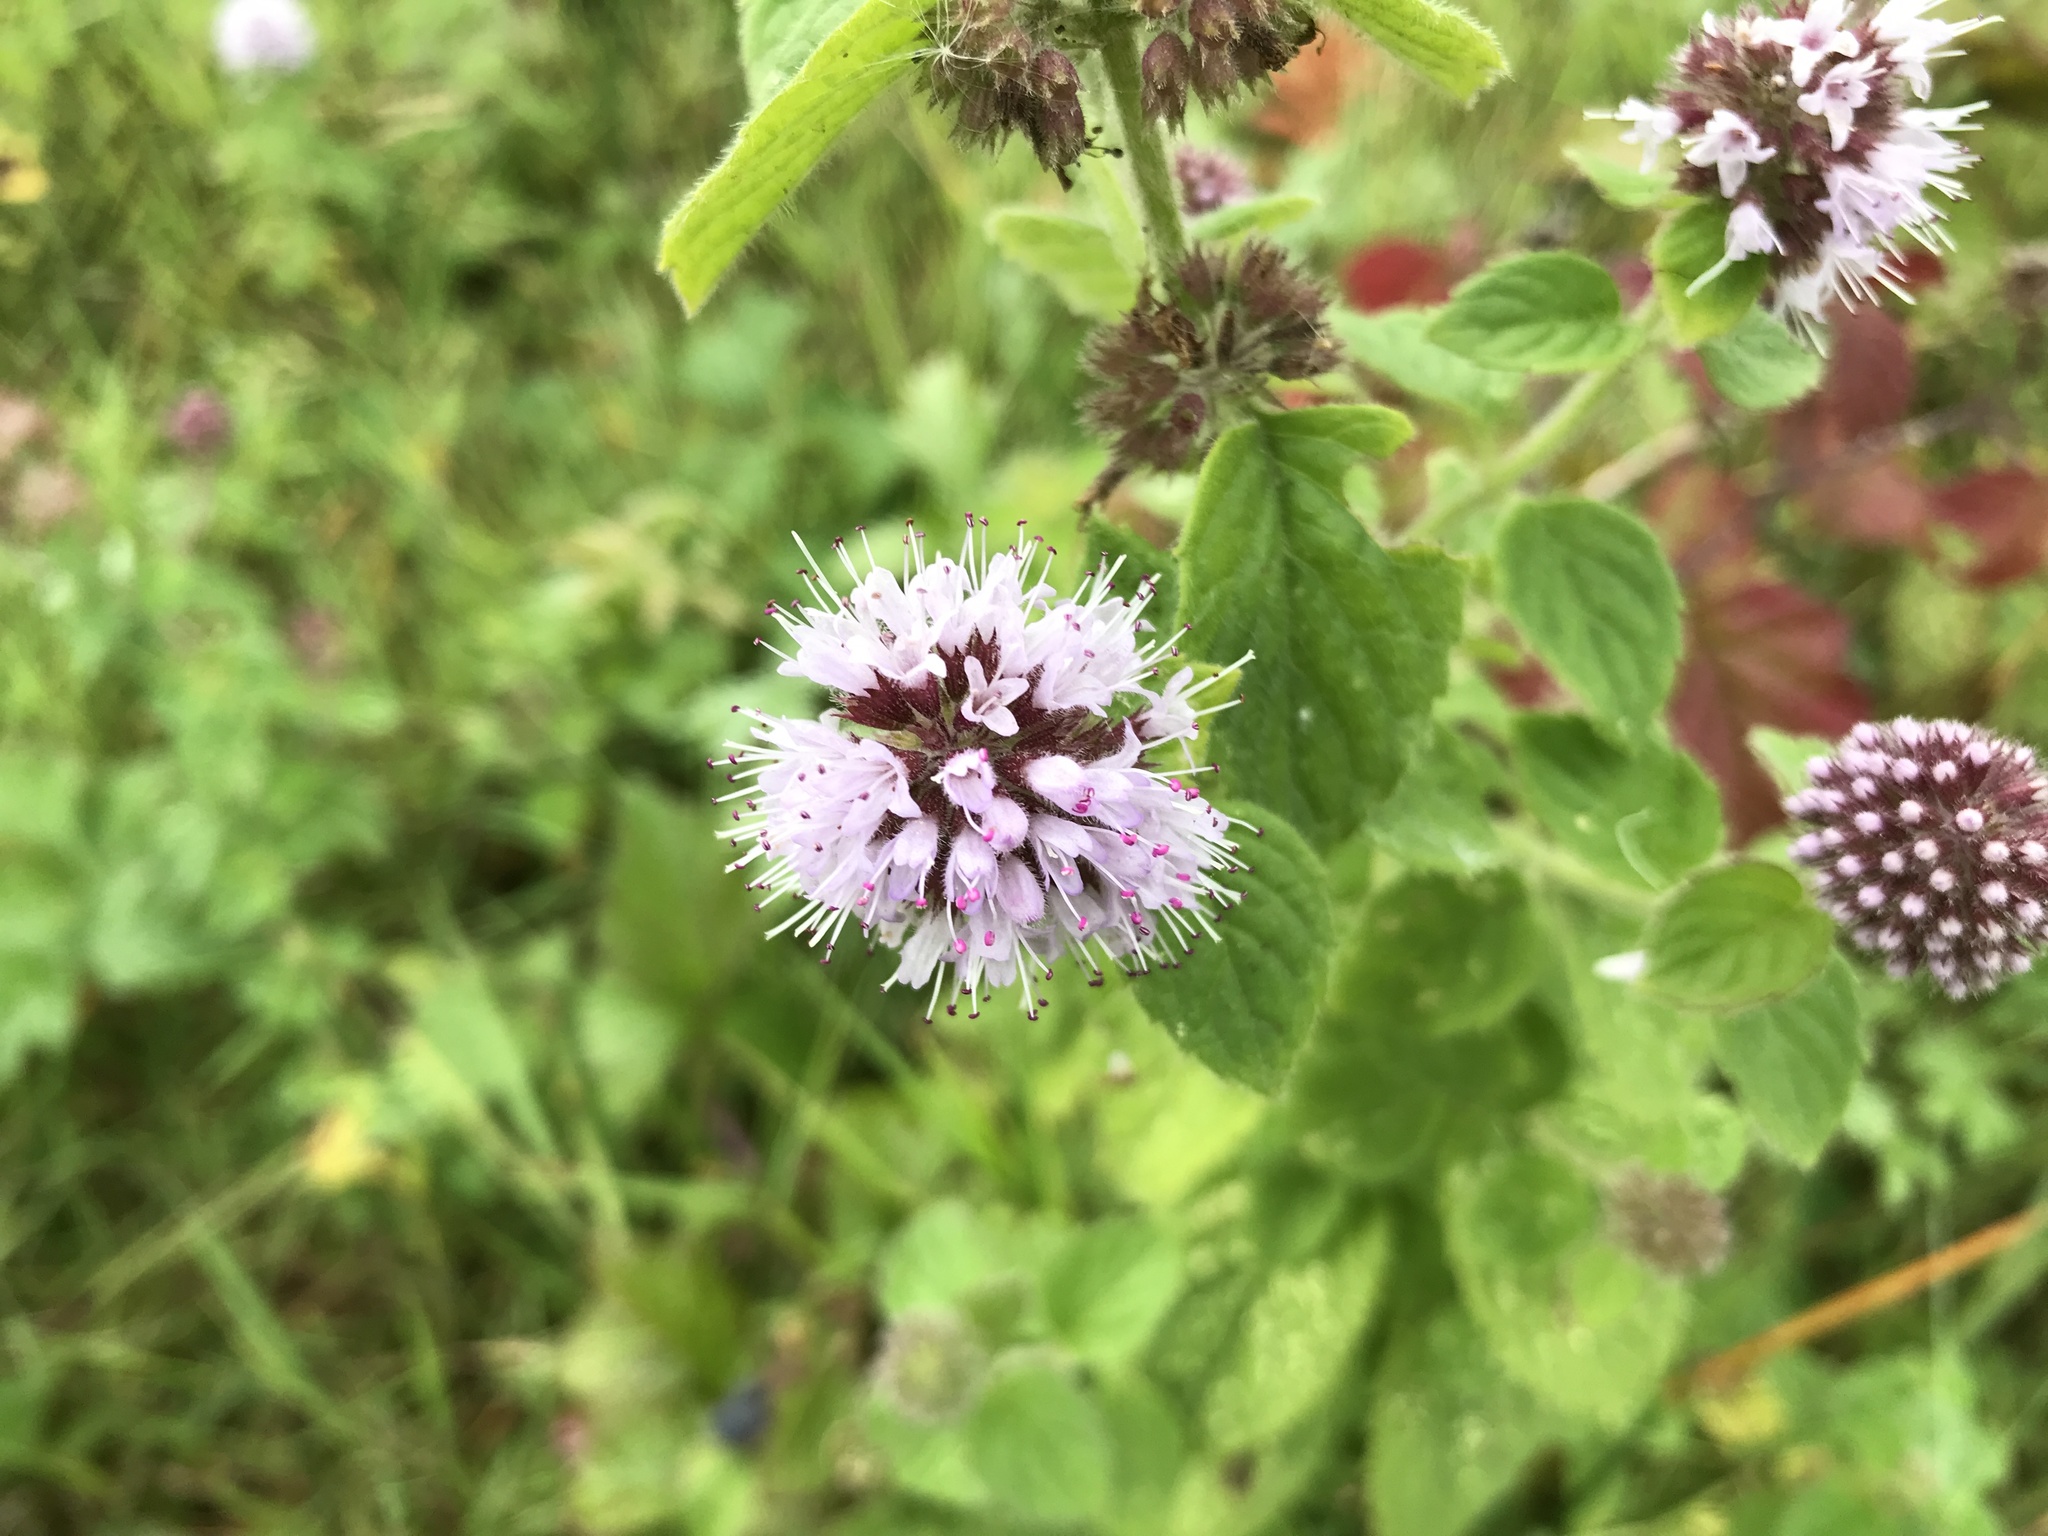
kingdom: Plantae
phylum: Tracheophyta
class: Magnoliopsida
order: Lamiales
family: Lamiaceae
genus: Mentha
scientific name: Mentha aquatica
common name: Water mint
